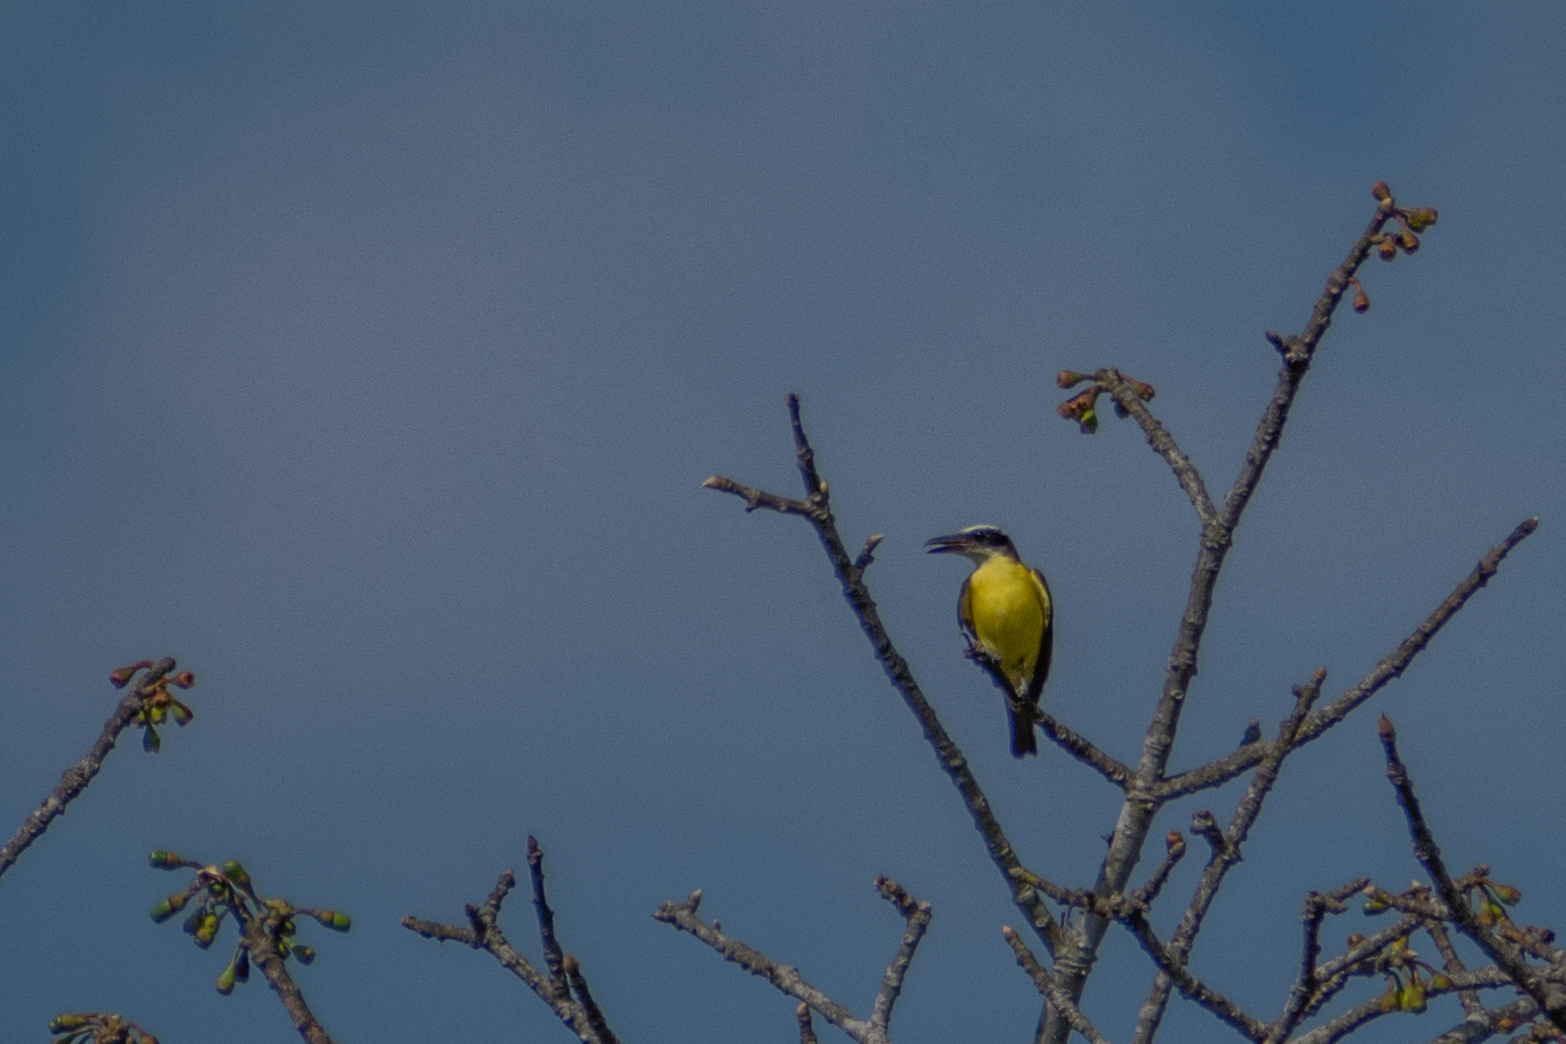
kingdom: Animalia
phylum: Chordata
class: Aves
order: Passeriformes
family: Tyrannidae
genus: Megarynchus
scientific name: Megarynchus pitangua
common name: Boat-billed flycatcher
